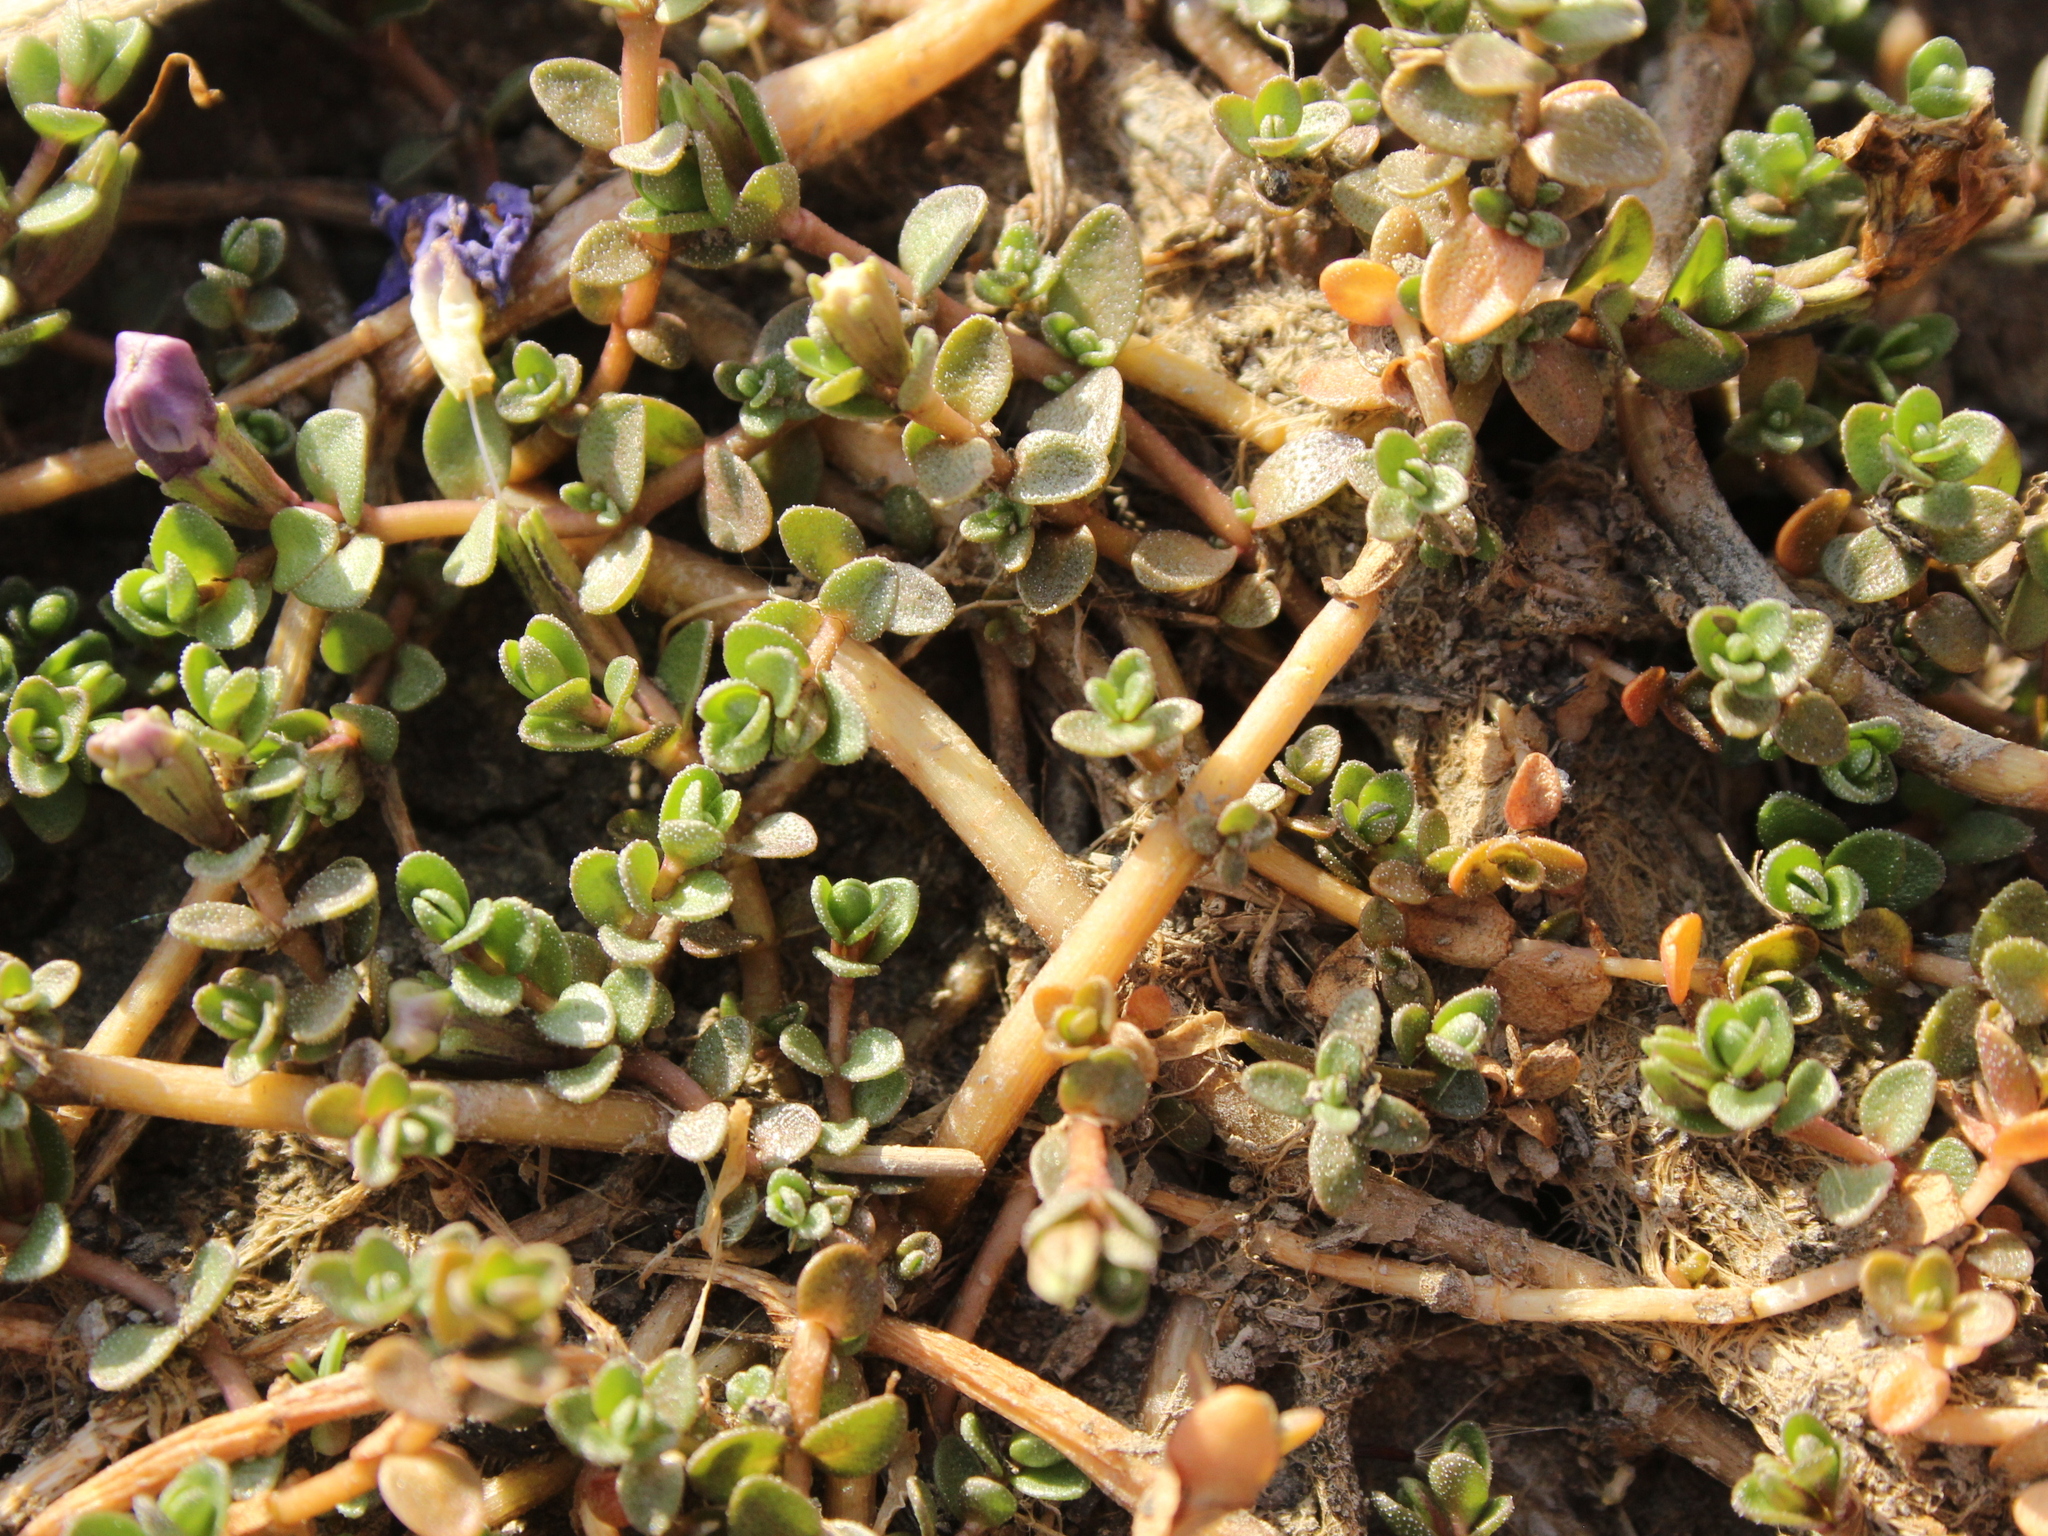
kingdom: Plantae
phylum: Tracheophyta
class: Magnoliopsida
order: Lamiales
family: Phrymaceae
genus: Thyridia
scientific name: Thyridia repens
